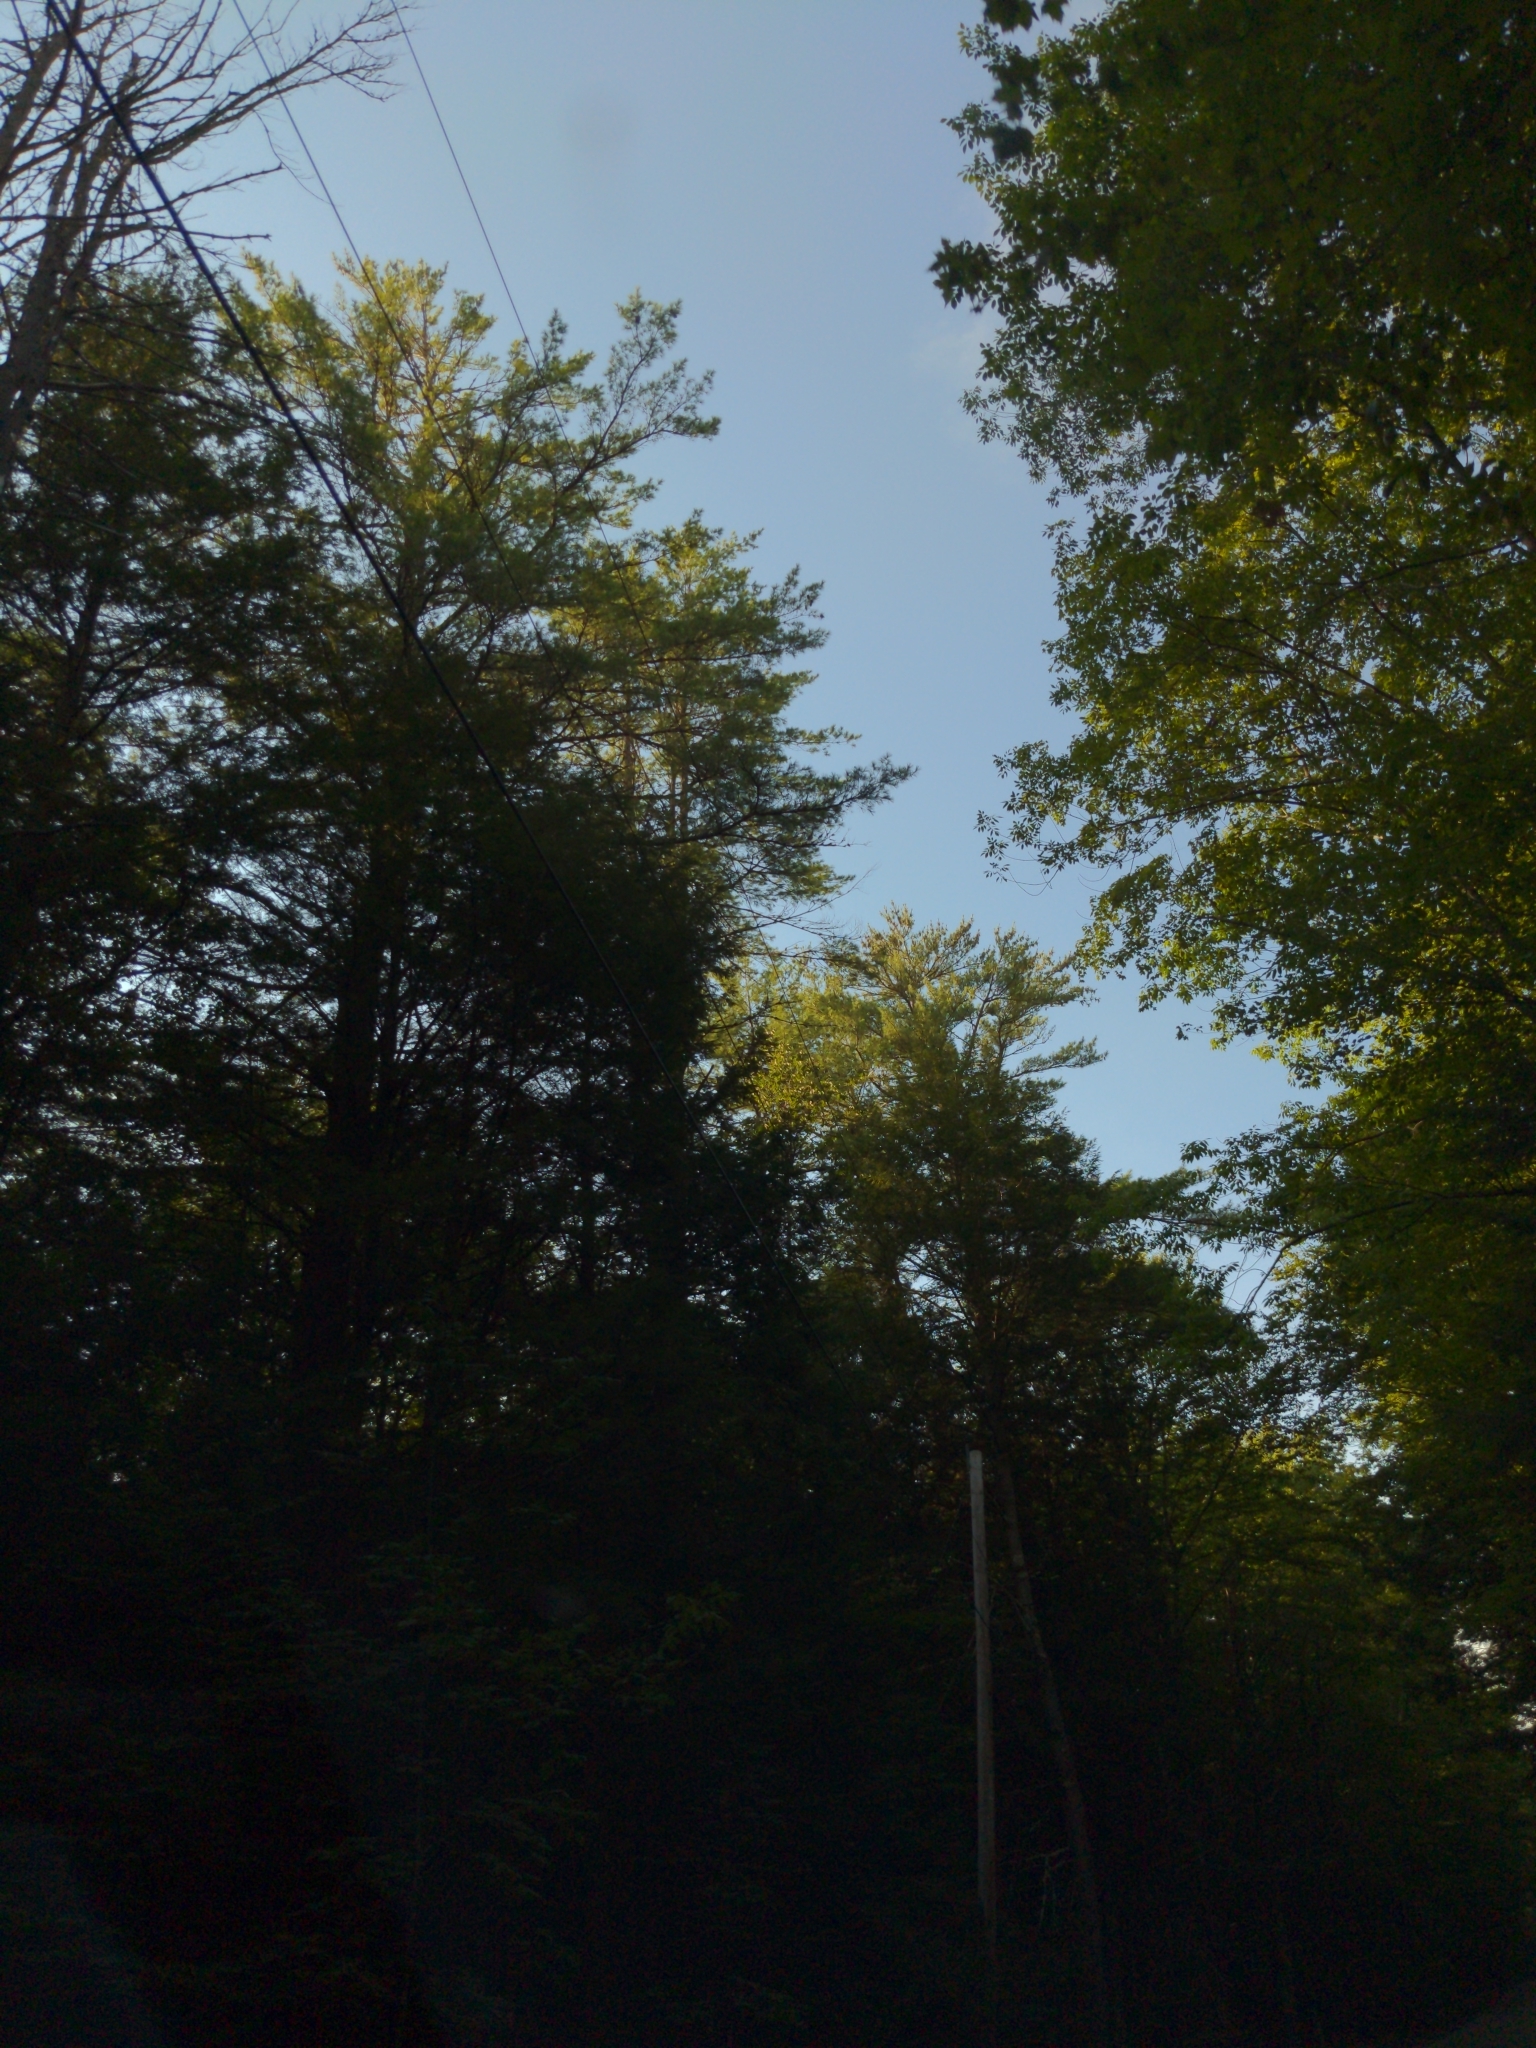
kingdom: Plantae
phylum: Tracheophyta
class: Pinopsida
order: Pinales
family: Pinaceae
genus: Pinus
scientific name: Pinus strobus
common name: Weymouth pine
